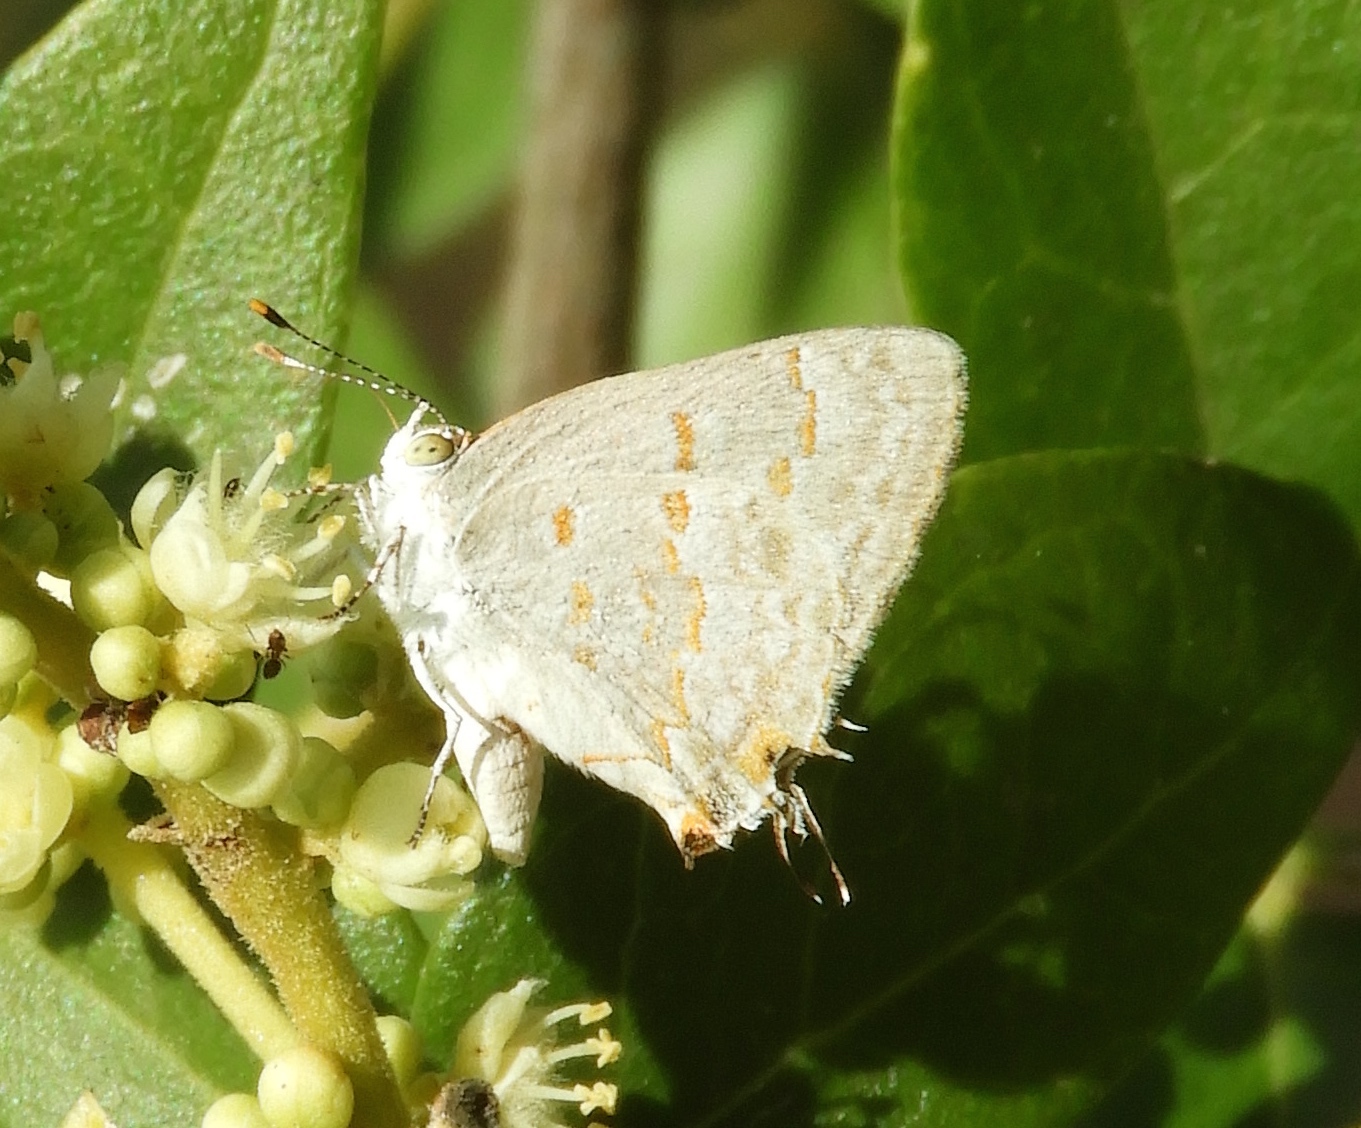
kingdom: Animalia
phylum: Arthropoda
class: Insecta
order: Lepidoptera
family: Lycaenidae
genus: Ministrymon
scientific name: Ministrymon clytie
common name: Clytie ministreak
